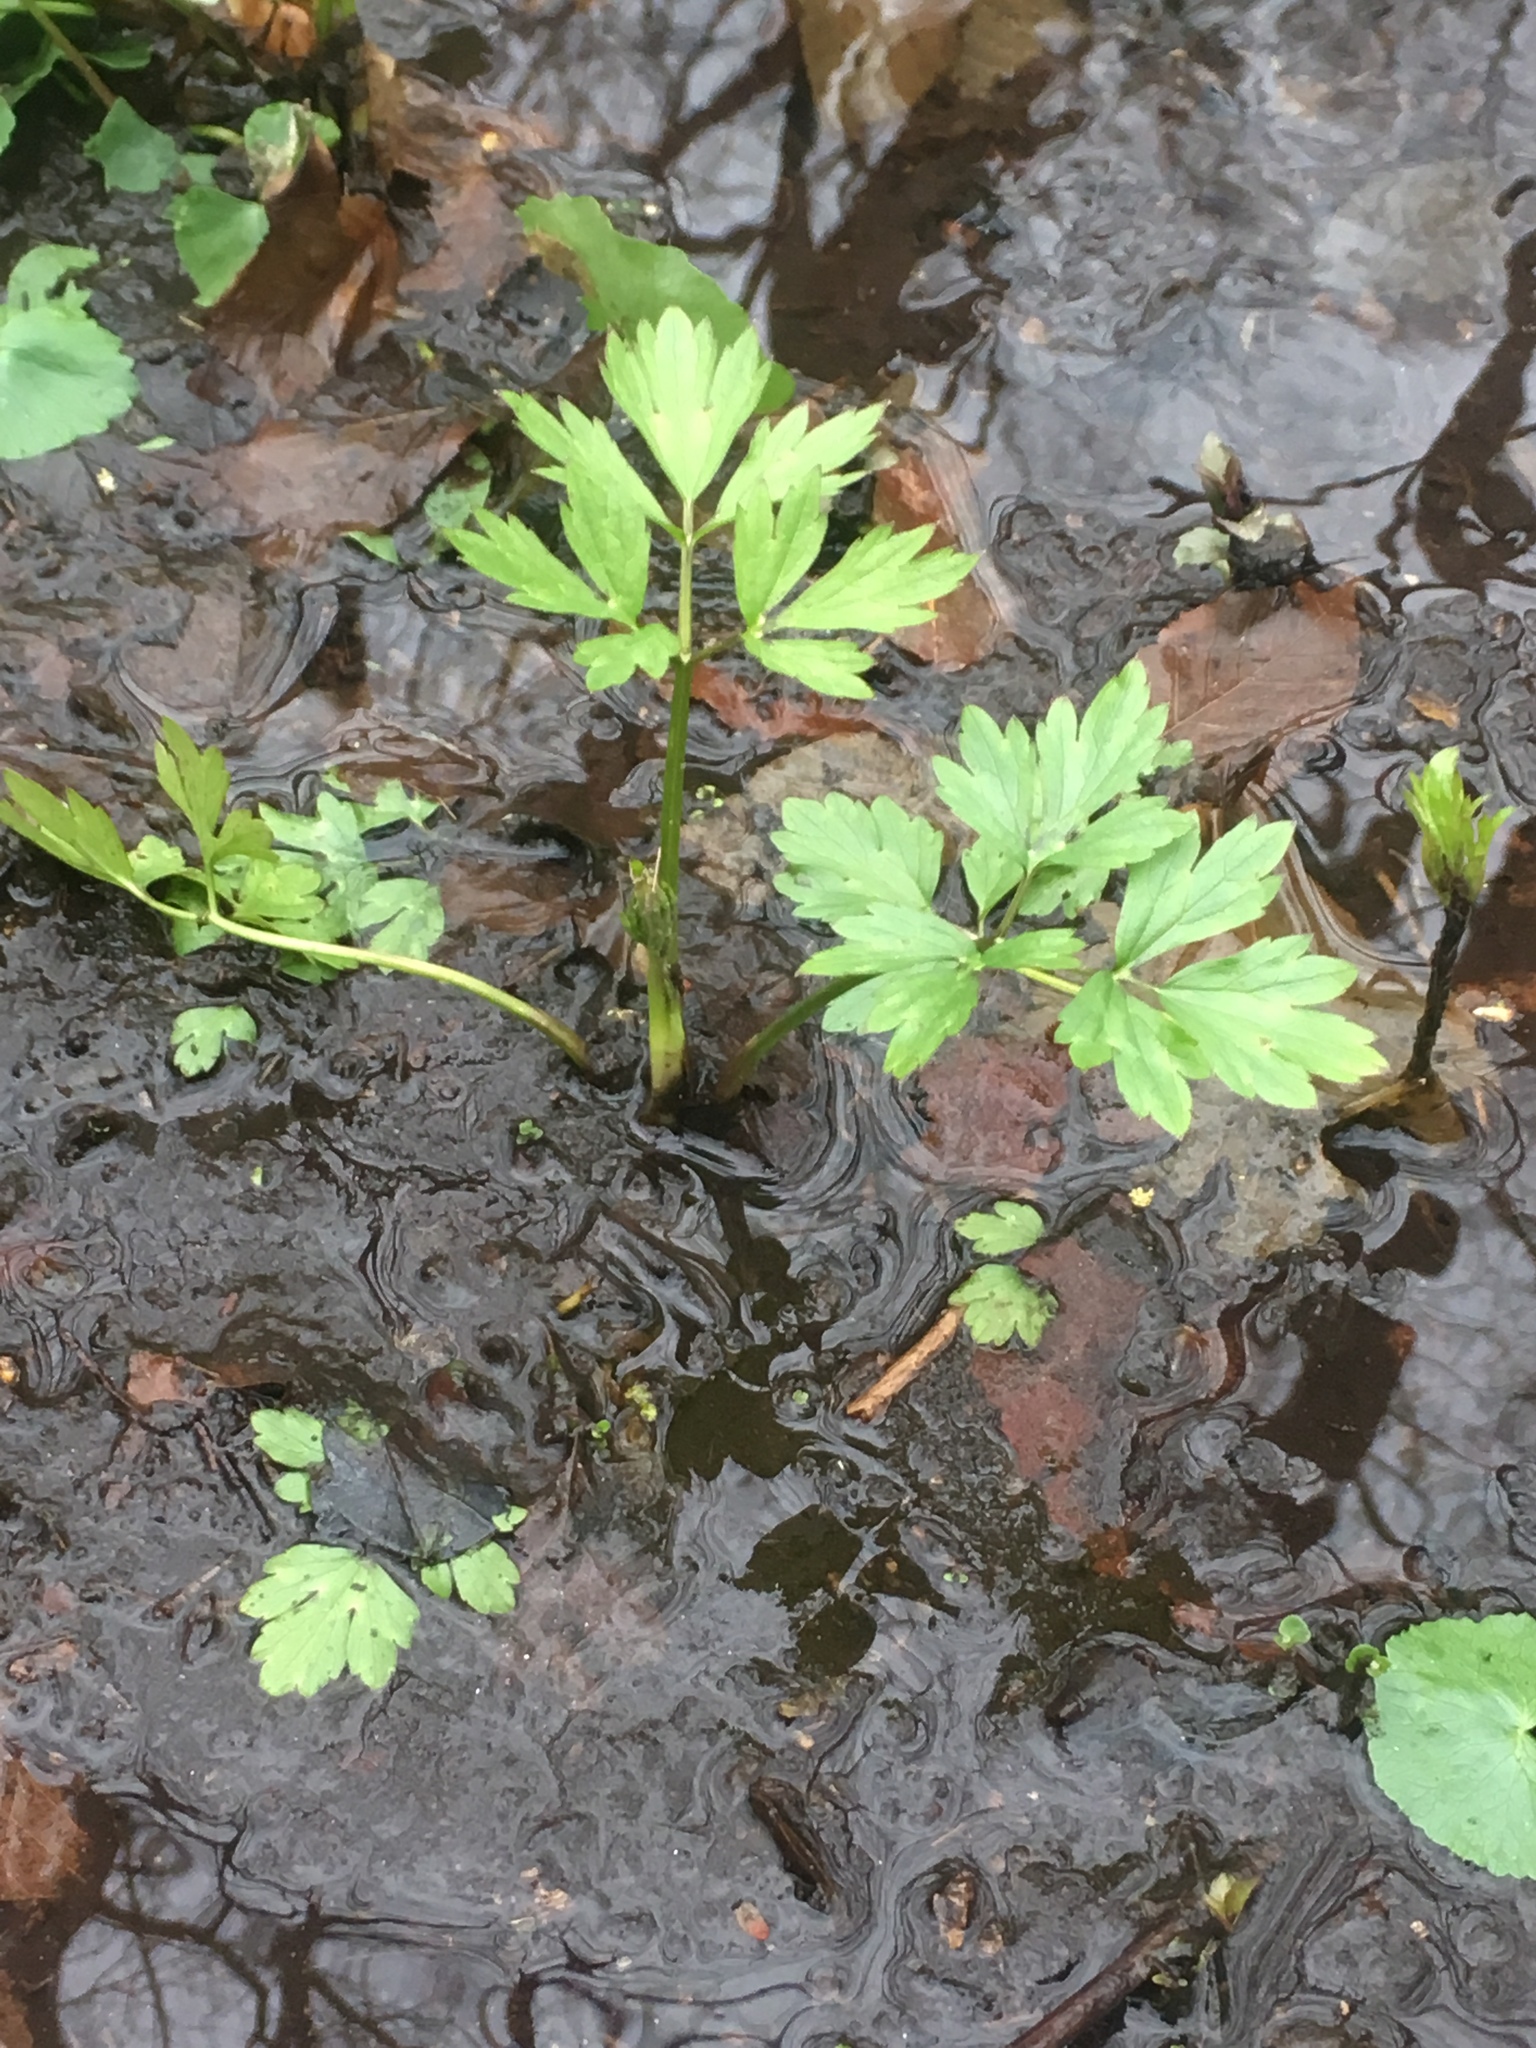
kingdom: Plantae
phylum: Tracheophyta
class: Magnoliopsida
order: Ranunculales
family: Ranunculaceae
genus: Ranunculus
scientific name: Ranunculus hispidus
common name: Bristly buttercup
